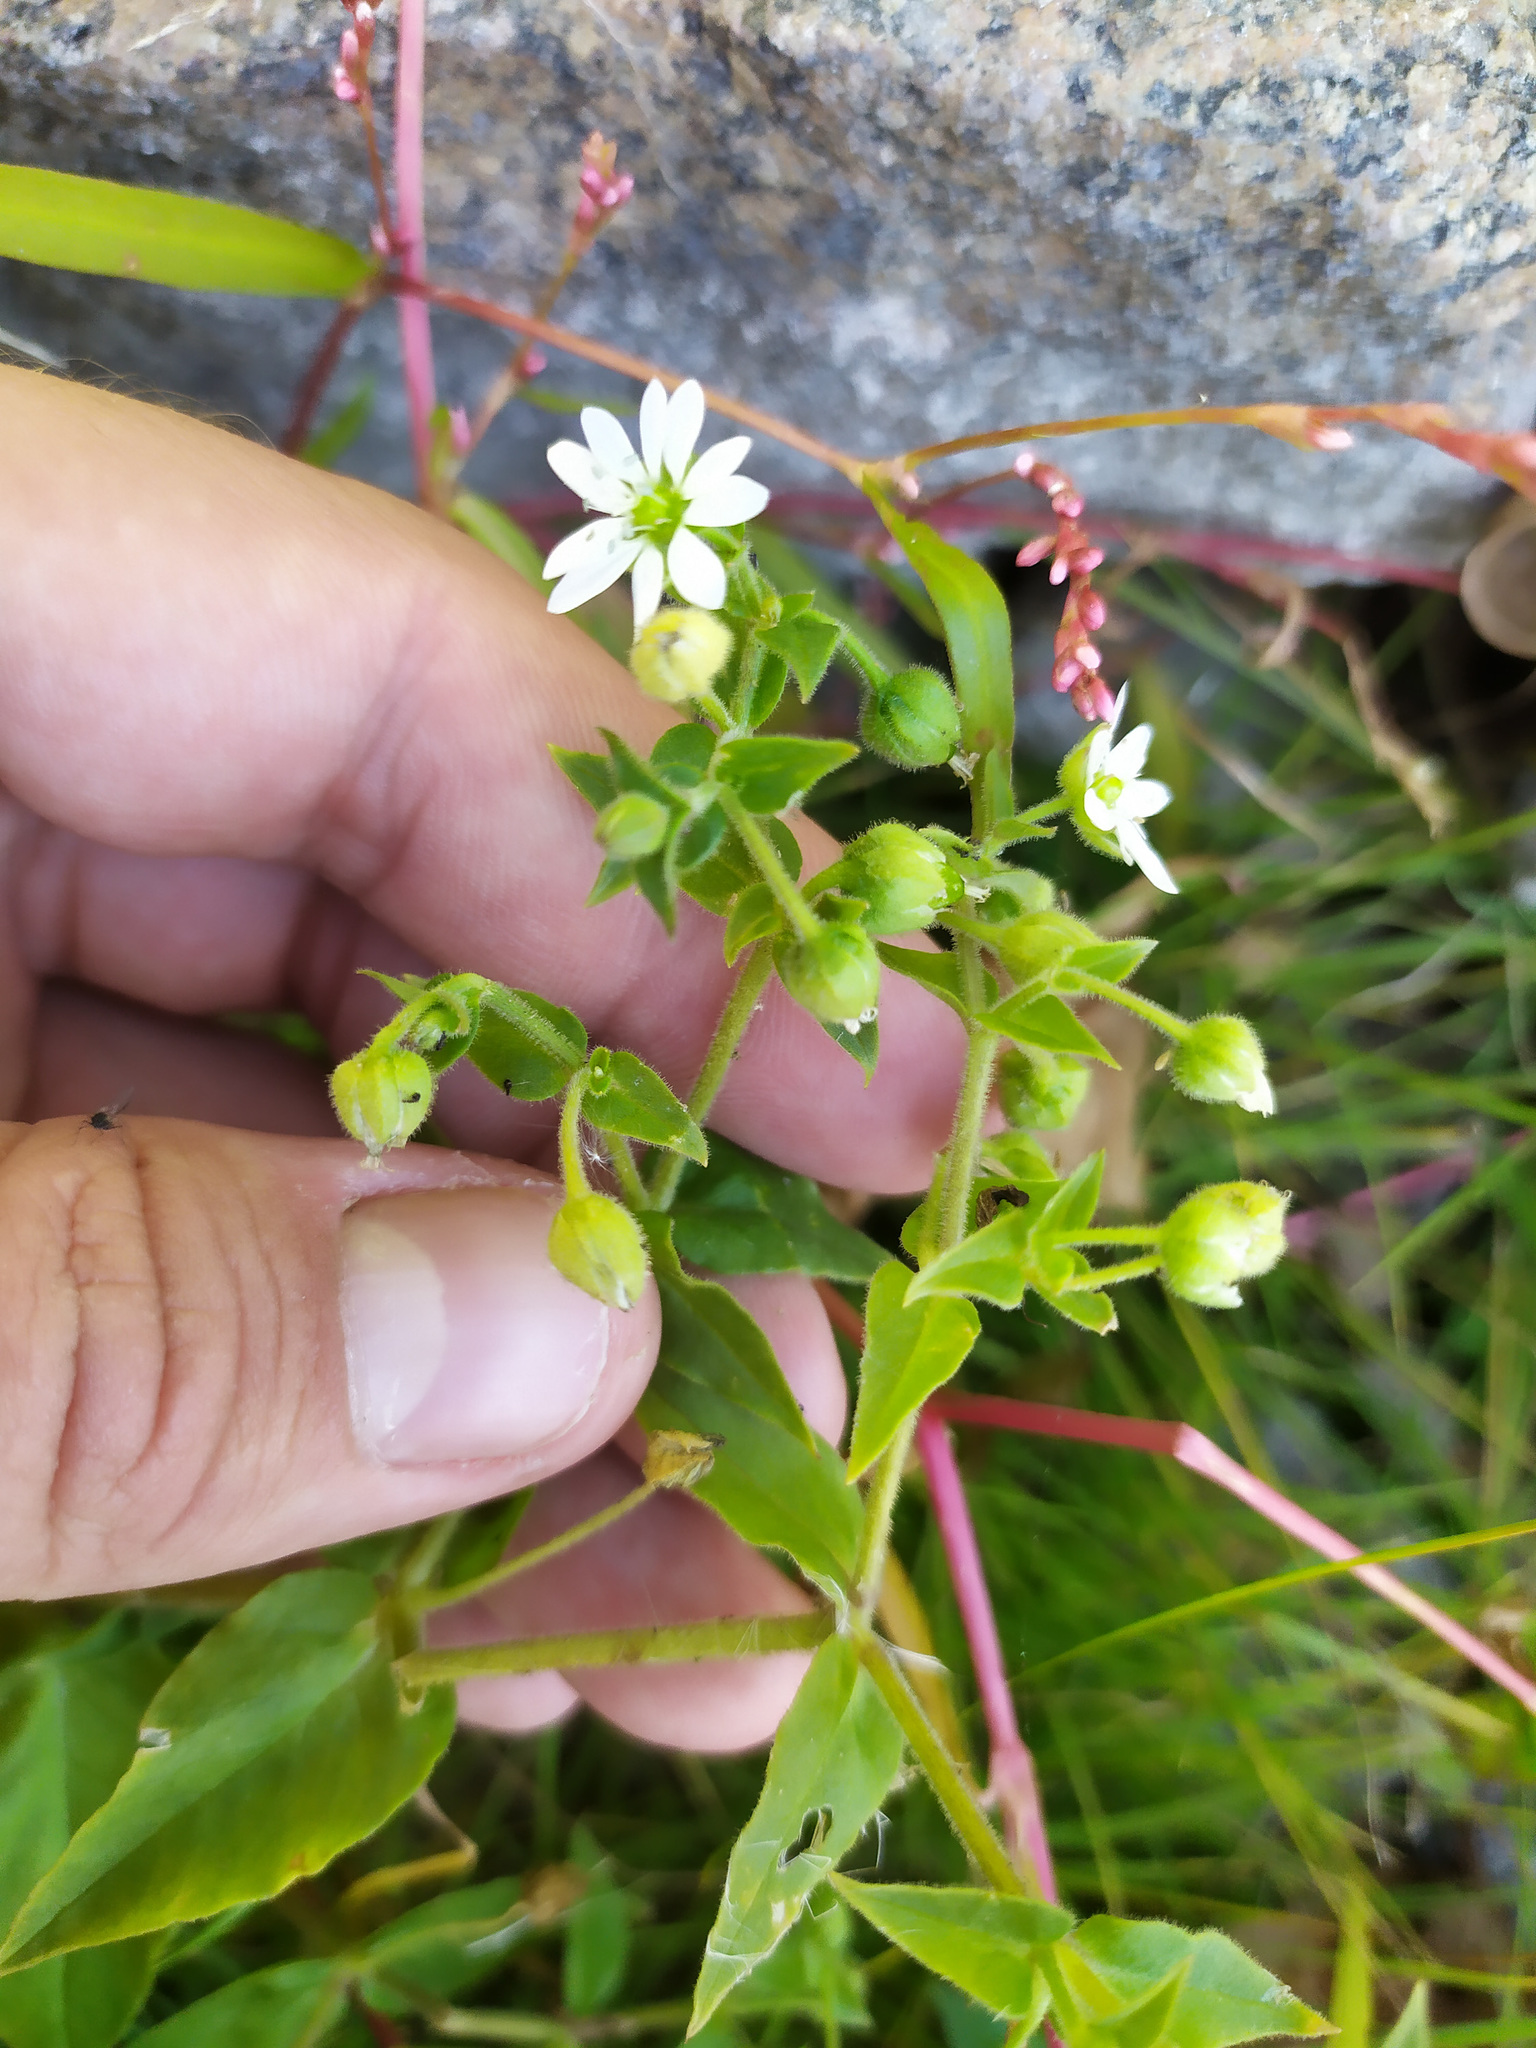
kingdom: Plantae
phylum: Tracheophyta
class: Magnoliopsida
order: Caryophyllales
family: Caryophyllaceae
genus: Stellaria
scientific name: Stellaria aquatica
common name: Water chickweed
